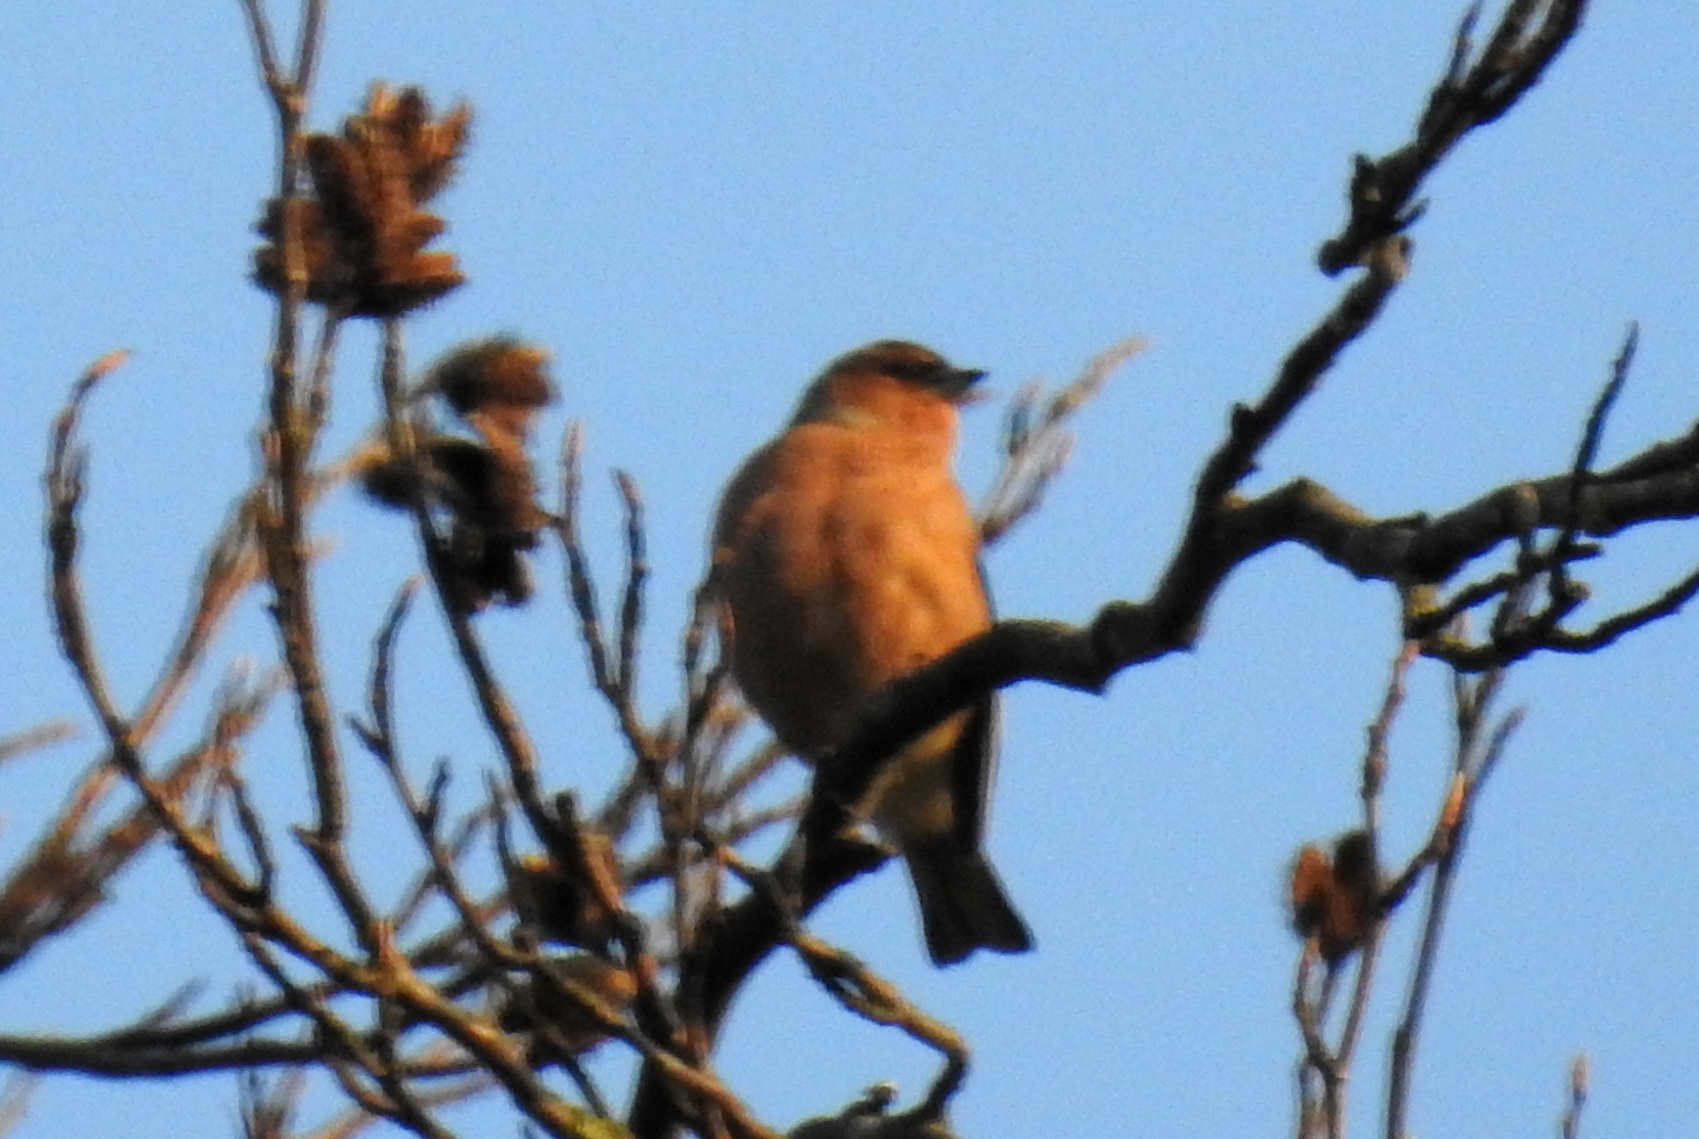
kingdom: Animalia
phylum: Chordata
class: Aves
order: Passeriformes
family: Fringillidae
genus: Fringilla
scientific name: Fringilla coelebs
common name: Common chaffinch
